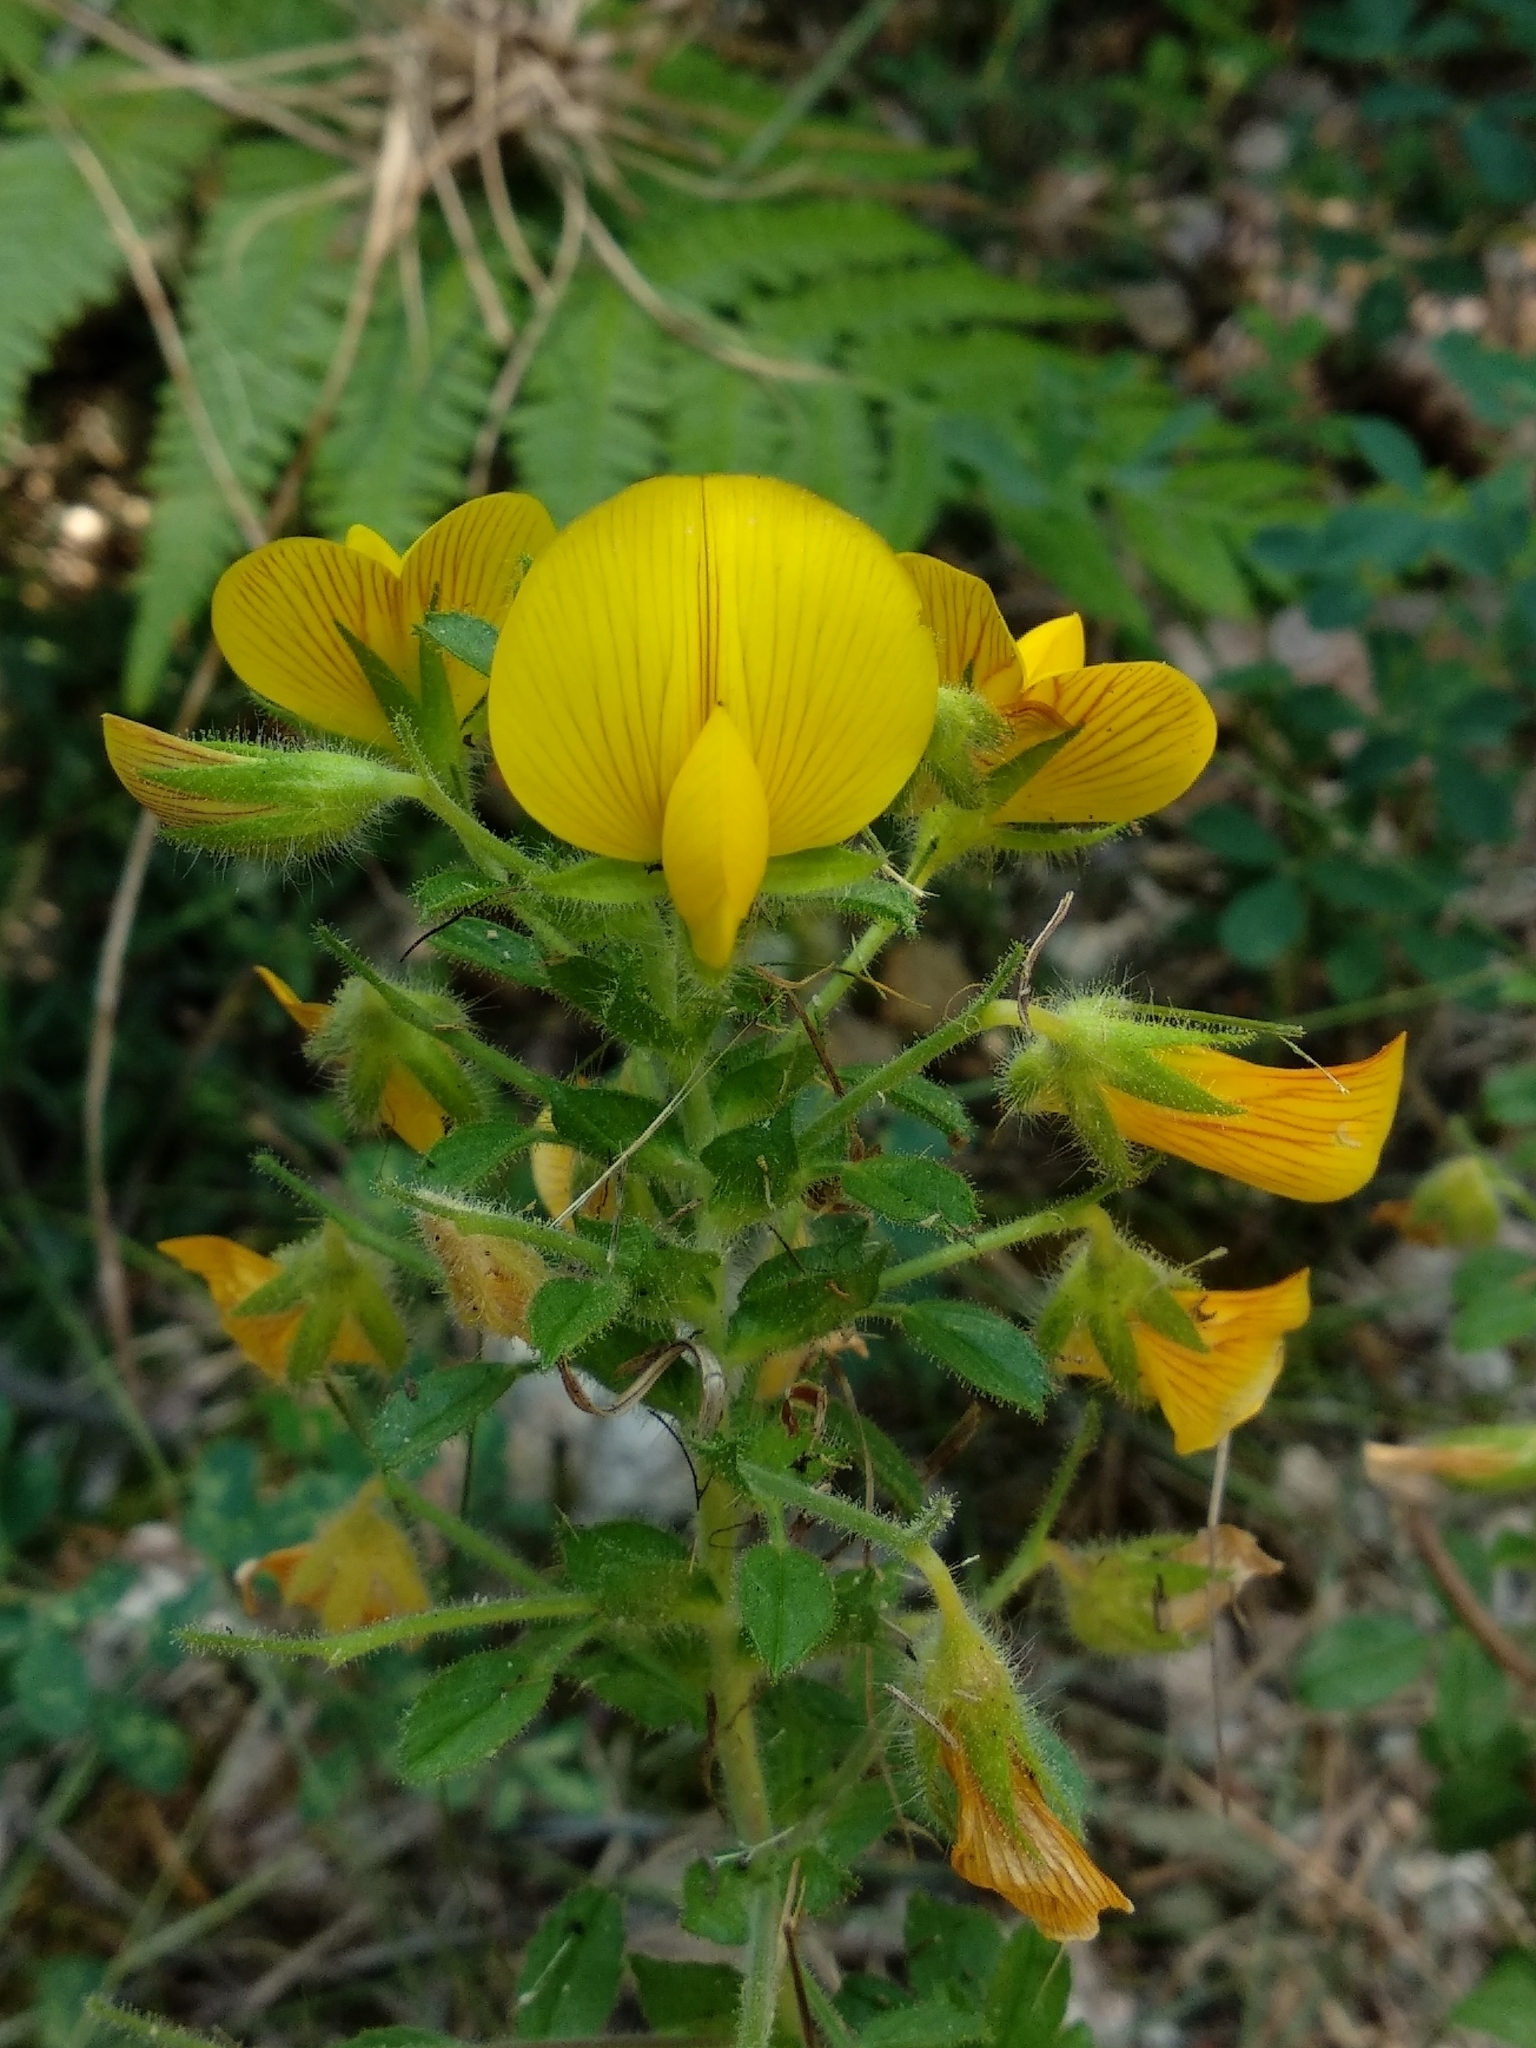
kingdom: Plantae
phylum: Tracheophyta
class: Magnoliopsida
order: Fabales
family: Fabaceae
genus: Ononis
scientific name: Ononis natrix
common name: Yellow restharrow
